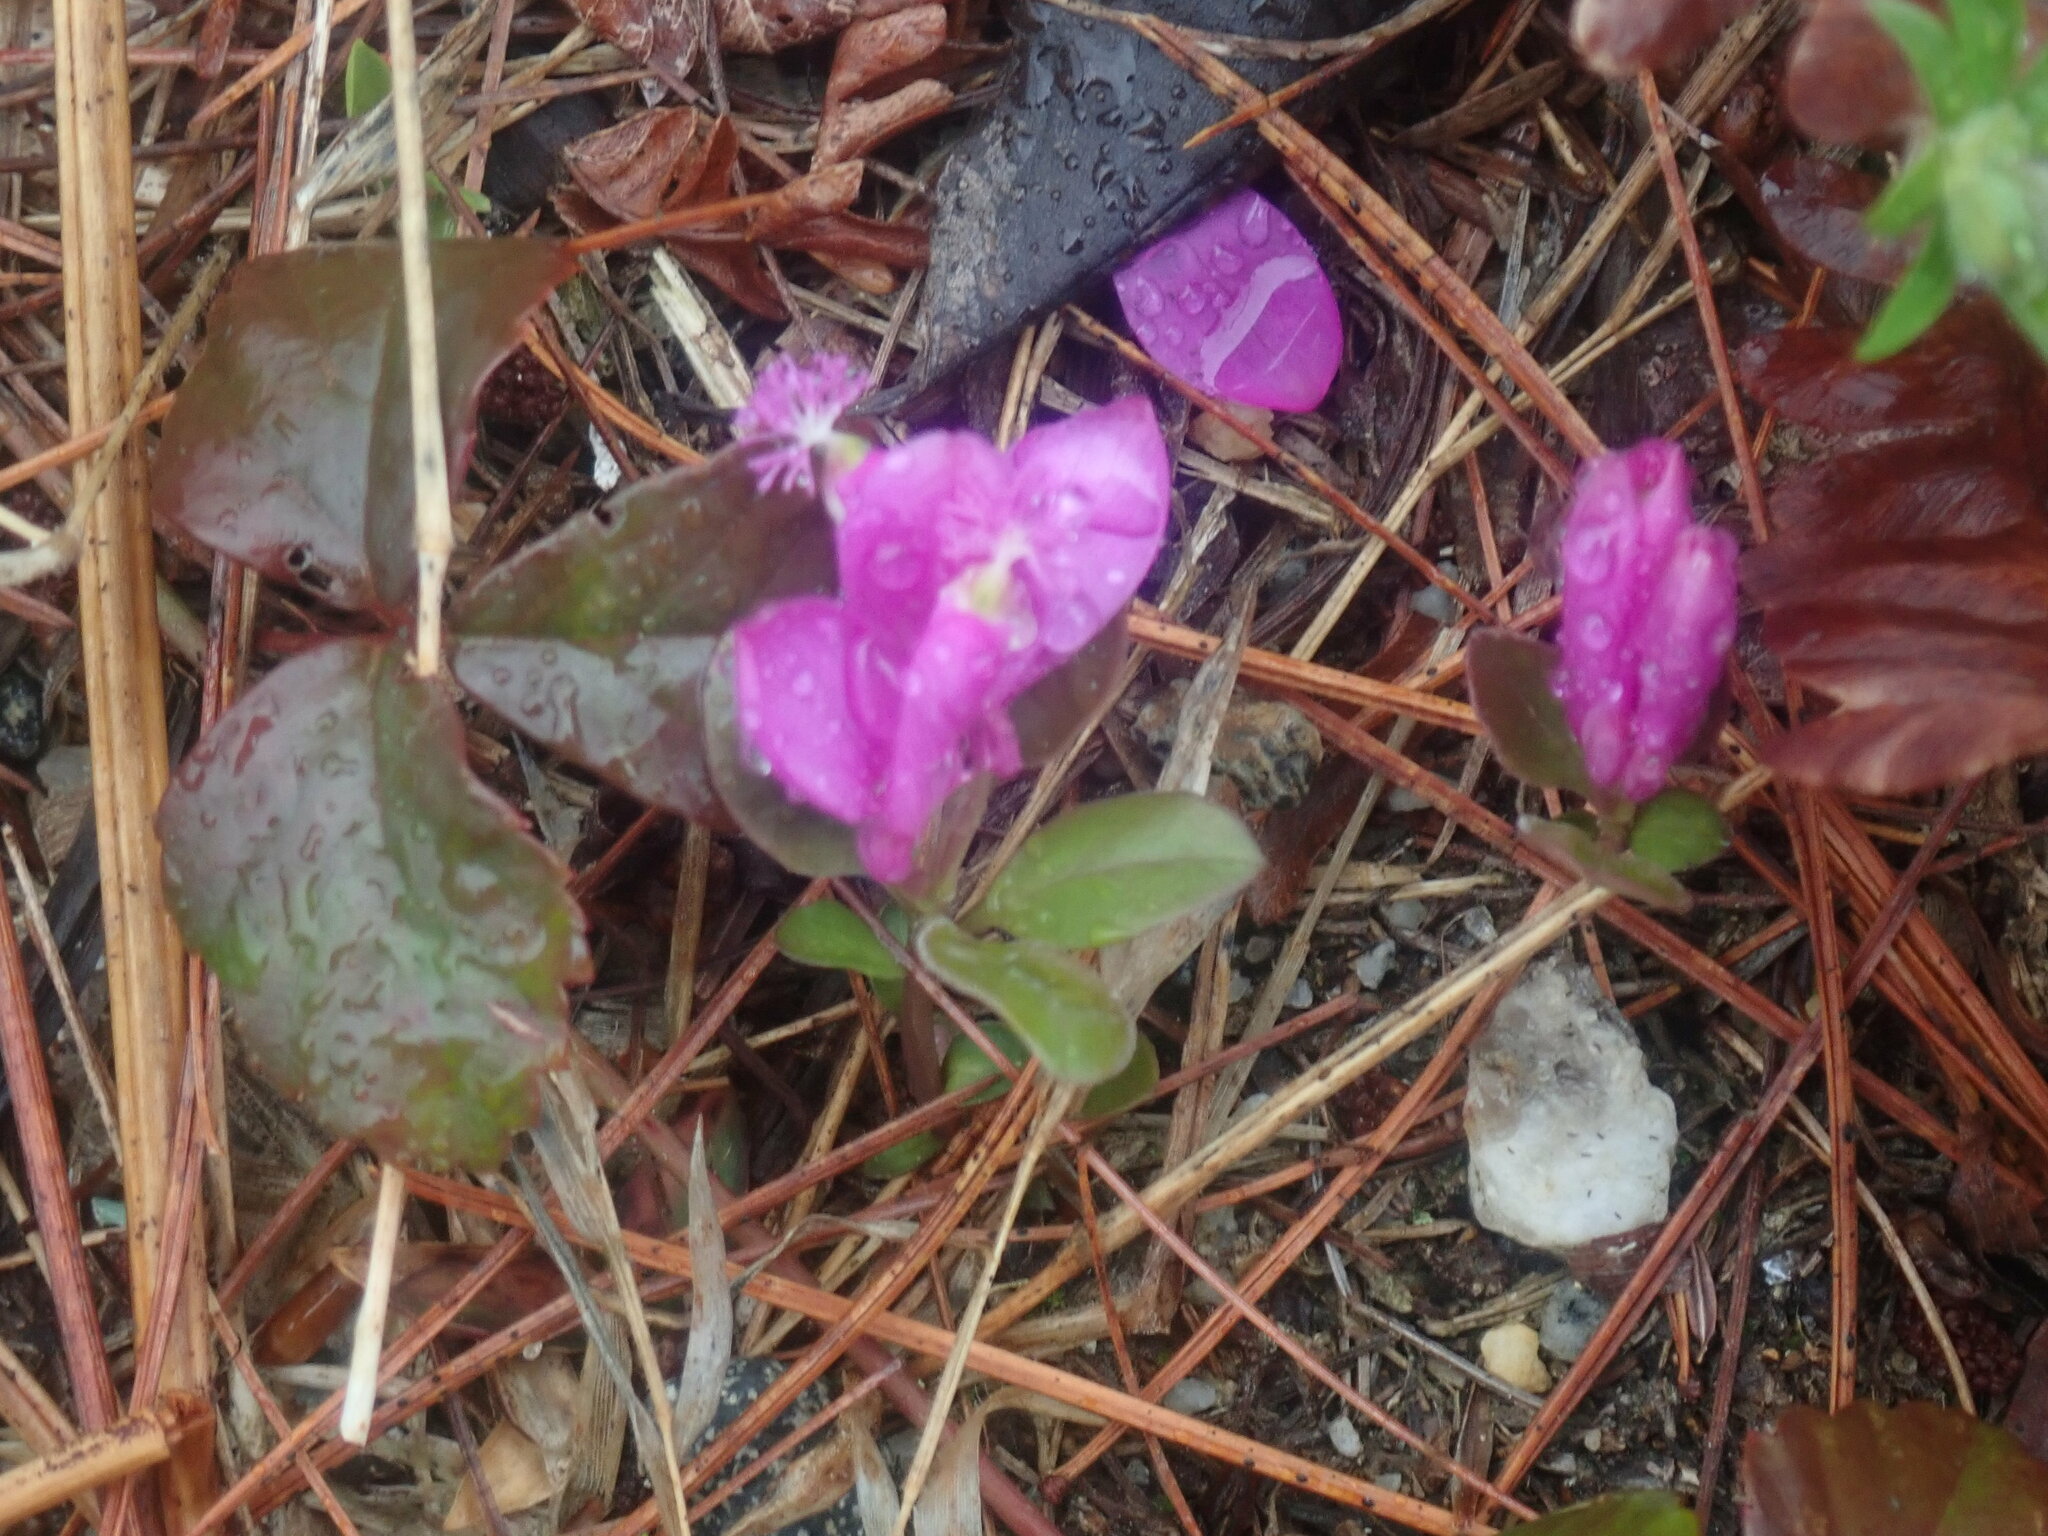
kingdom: Plantae
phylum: Tracheophyta
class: Magnoliopsida
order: Fabales
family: Polygalaceae
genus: Polygaloides
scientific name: Polygaloides paucifolia
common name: Bird-on-the-wing
